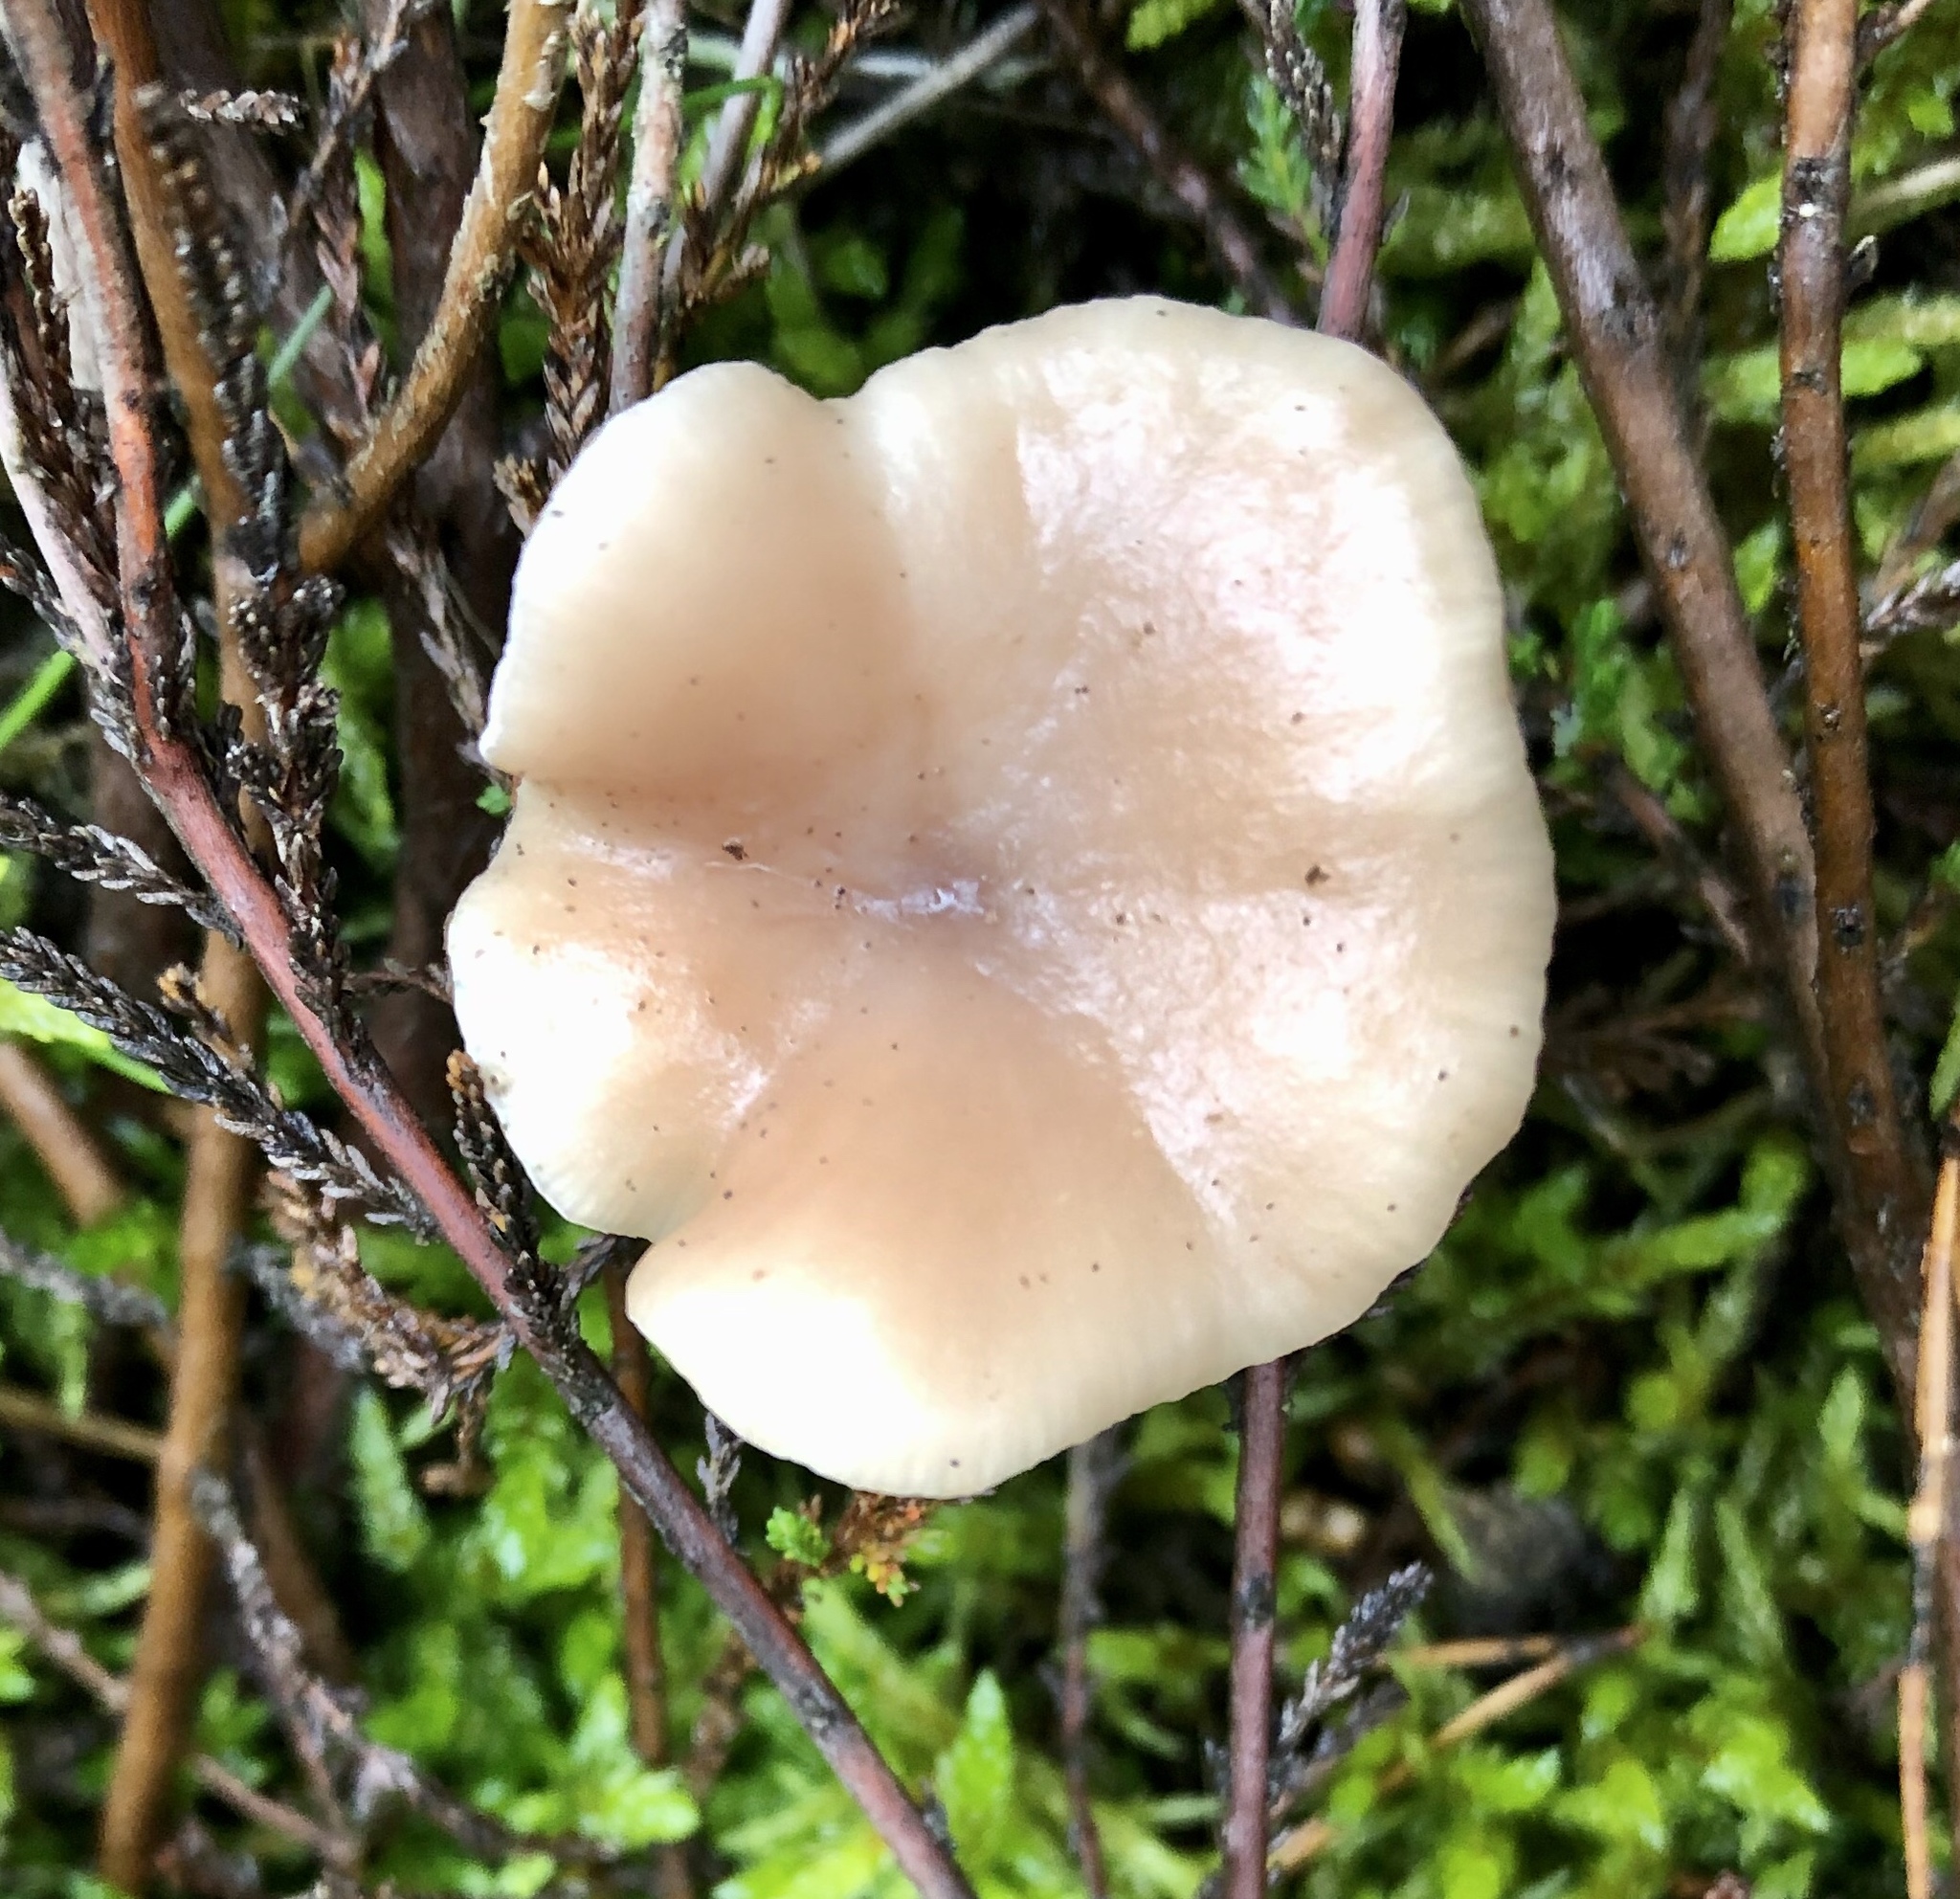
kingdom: Fungi
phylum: Basidiomycota
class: Agaricomycetes
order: Agaricales
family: Tricholomataceae
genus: Clitocybe
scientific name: Clitocybe fragrans
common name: Fragrant funnel
